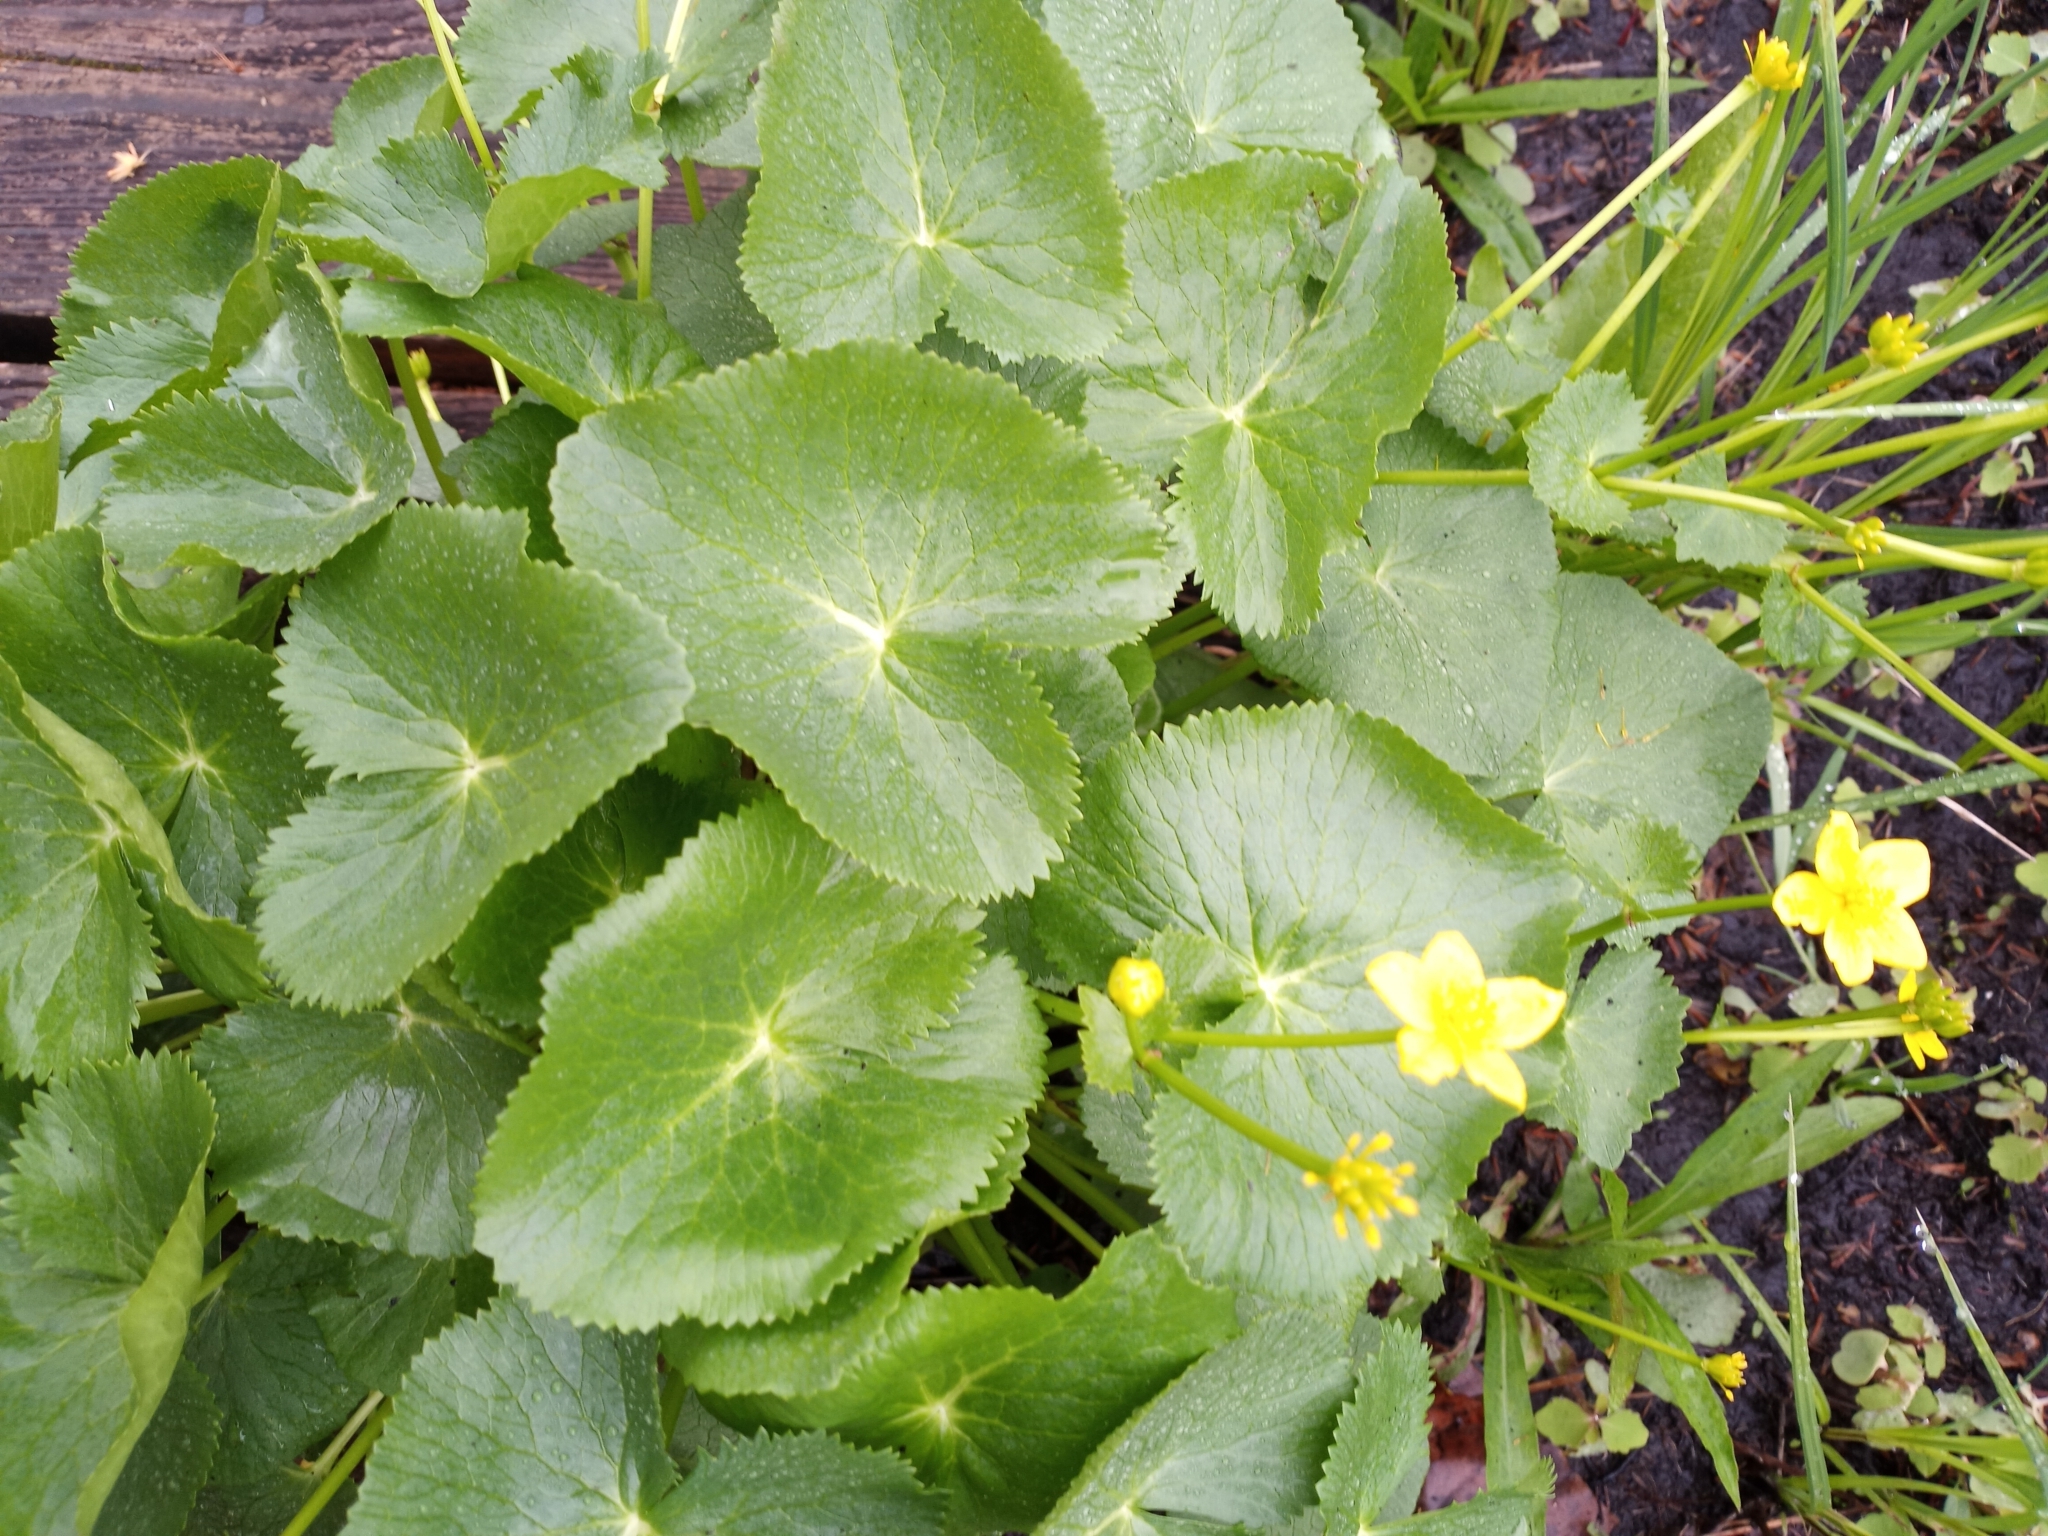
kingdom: Plantae
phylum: Tracheophyta
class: Magnoliopsida
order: Ranunculales
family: Ranunculaceae
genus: Caltha
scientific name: Caltha palustris
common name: Marsh marigold
